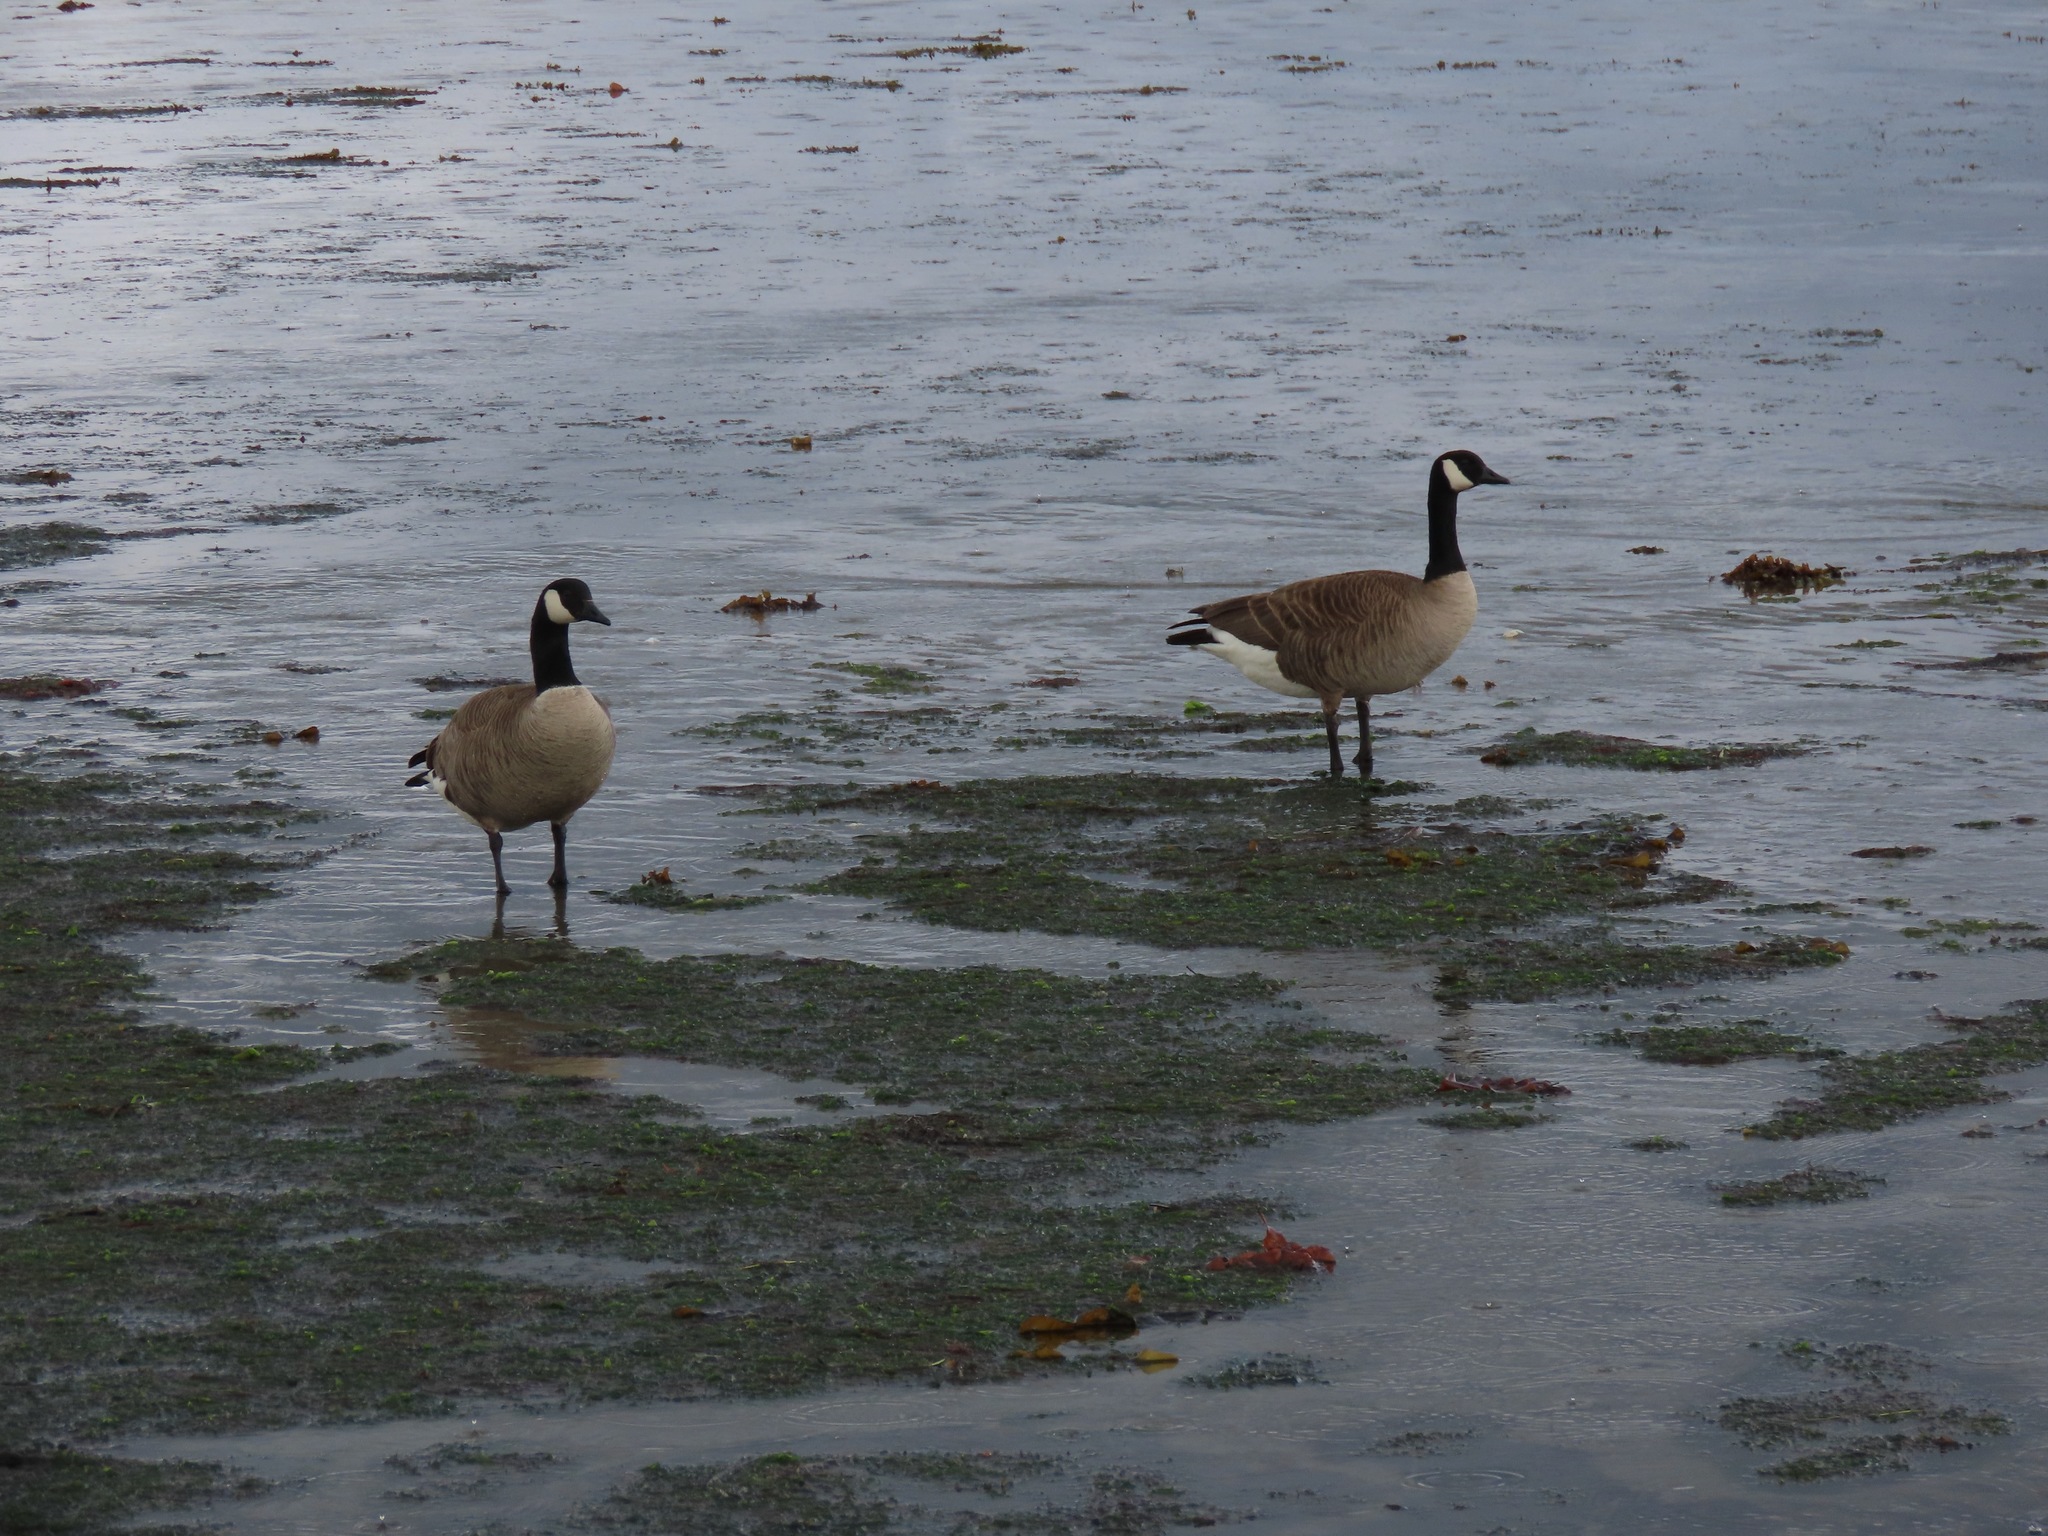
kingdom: Animalia
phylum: Chordata
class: Aves
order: Anseriformes
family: Anatidae
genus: Branta
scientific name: Branta canadensis
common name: Canada goose
